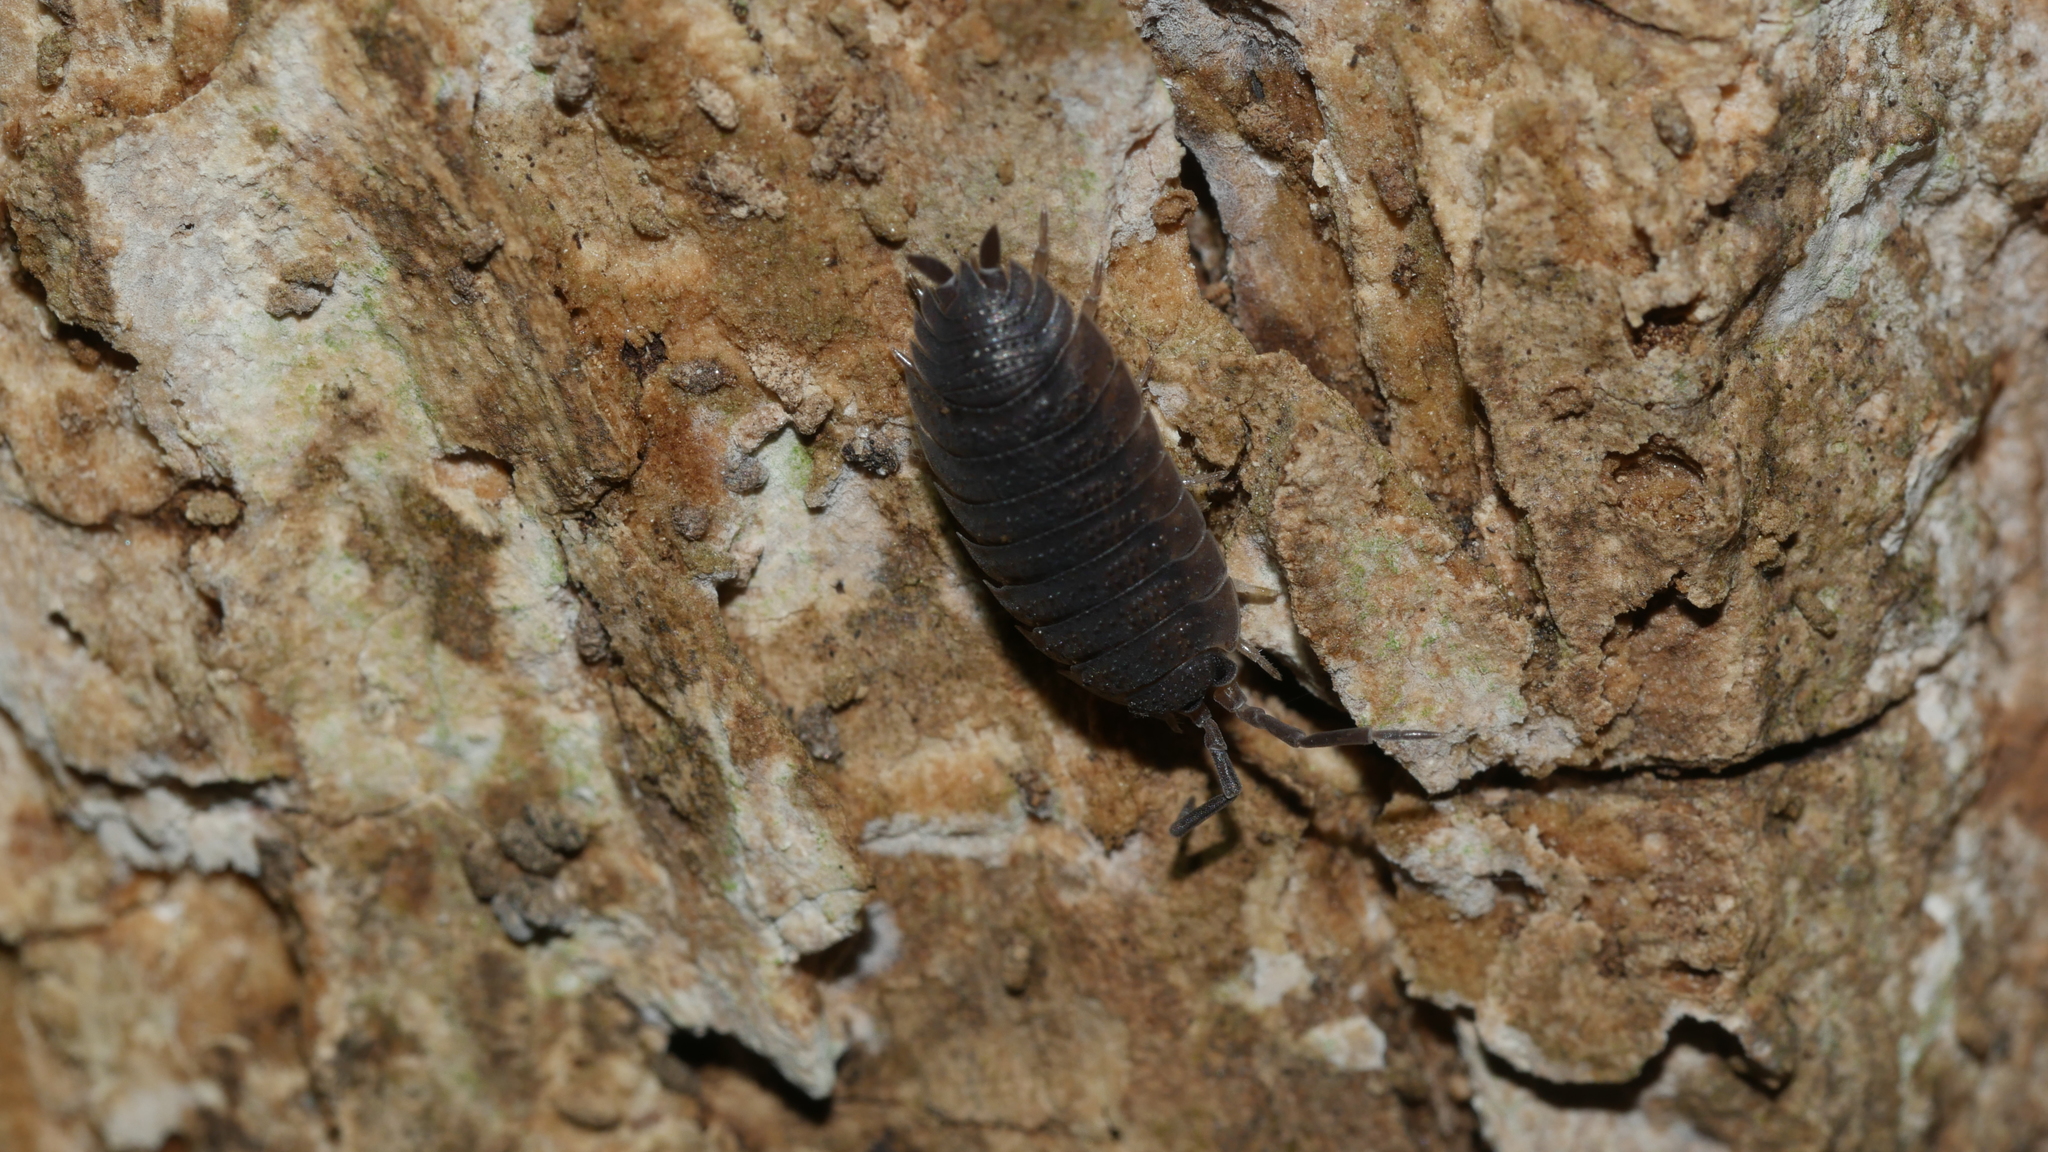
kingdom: Animalia
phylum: Arthropoda
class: Malacostraca
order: Isopoda
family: Porcellionidae
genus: Porcellio
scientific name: Porcellio scaber
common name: Common rough woodlouse
